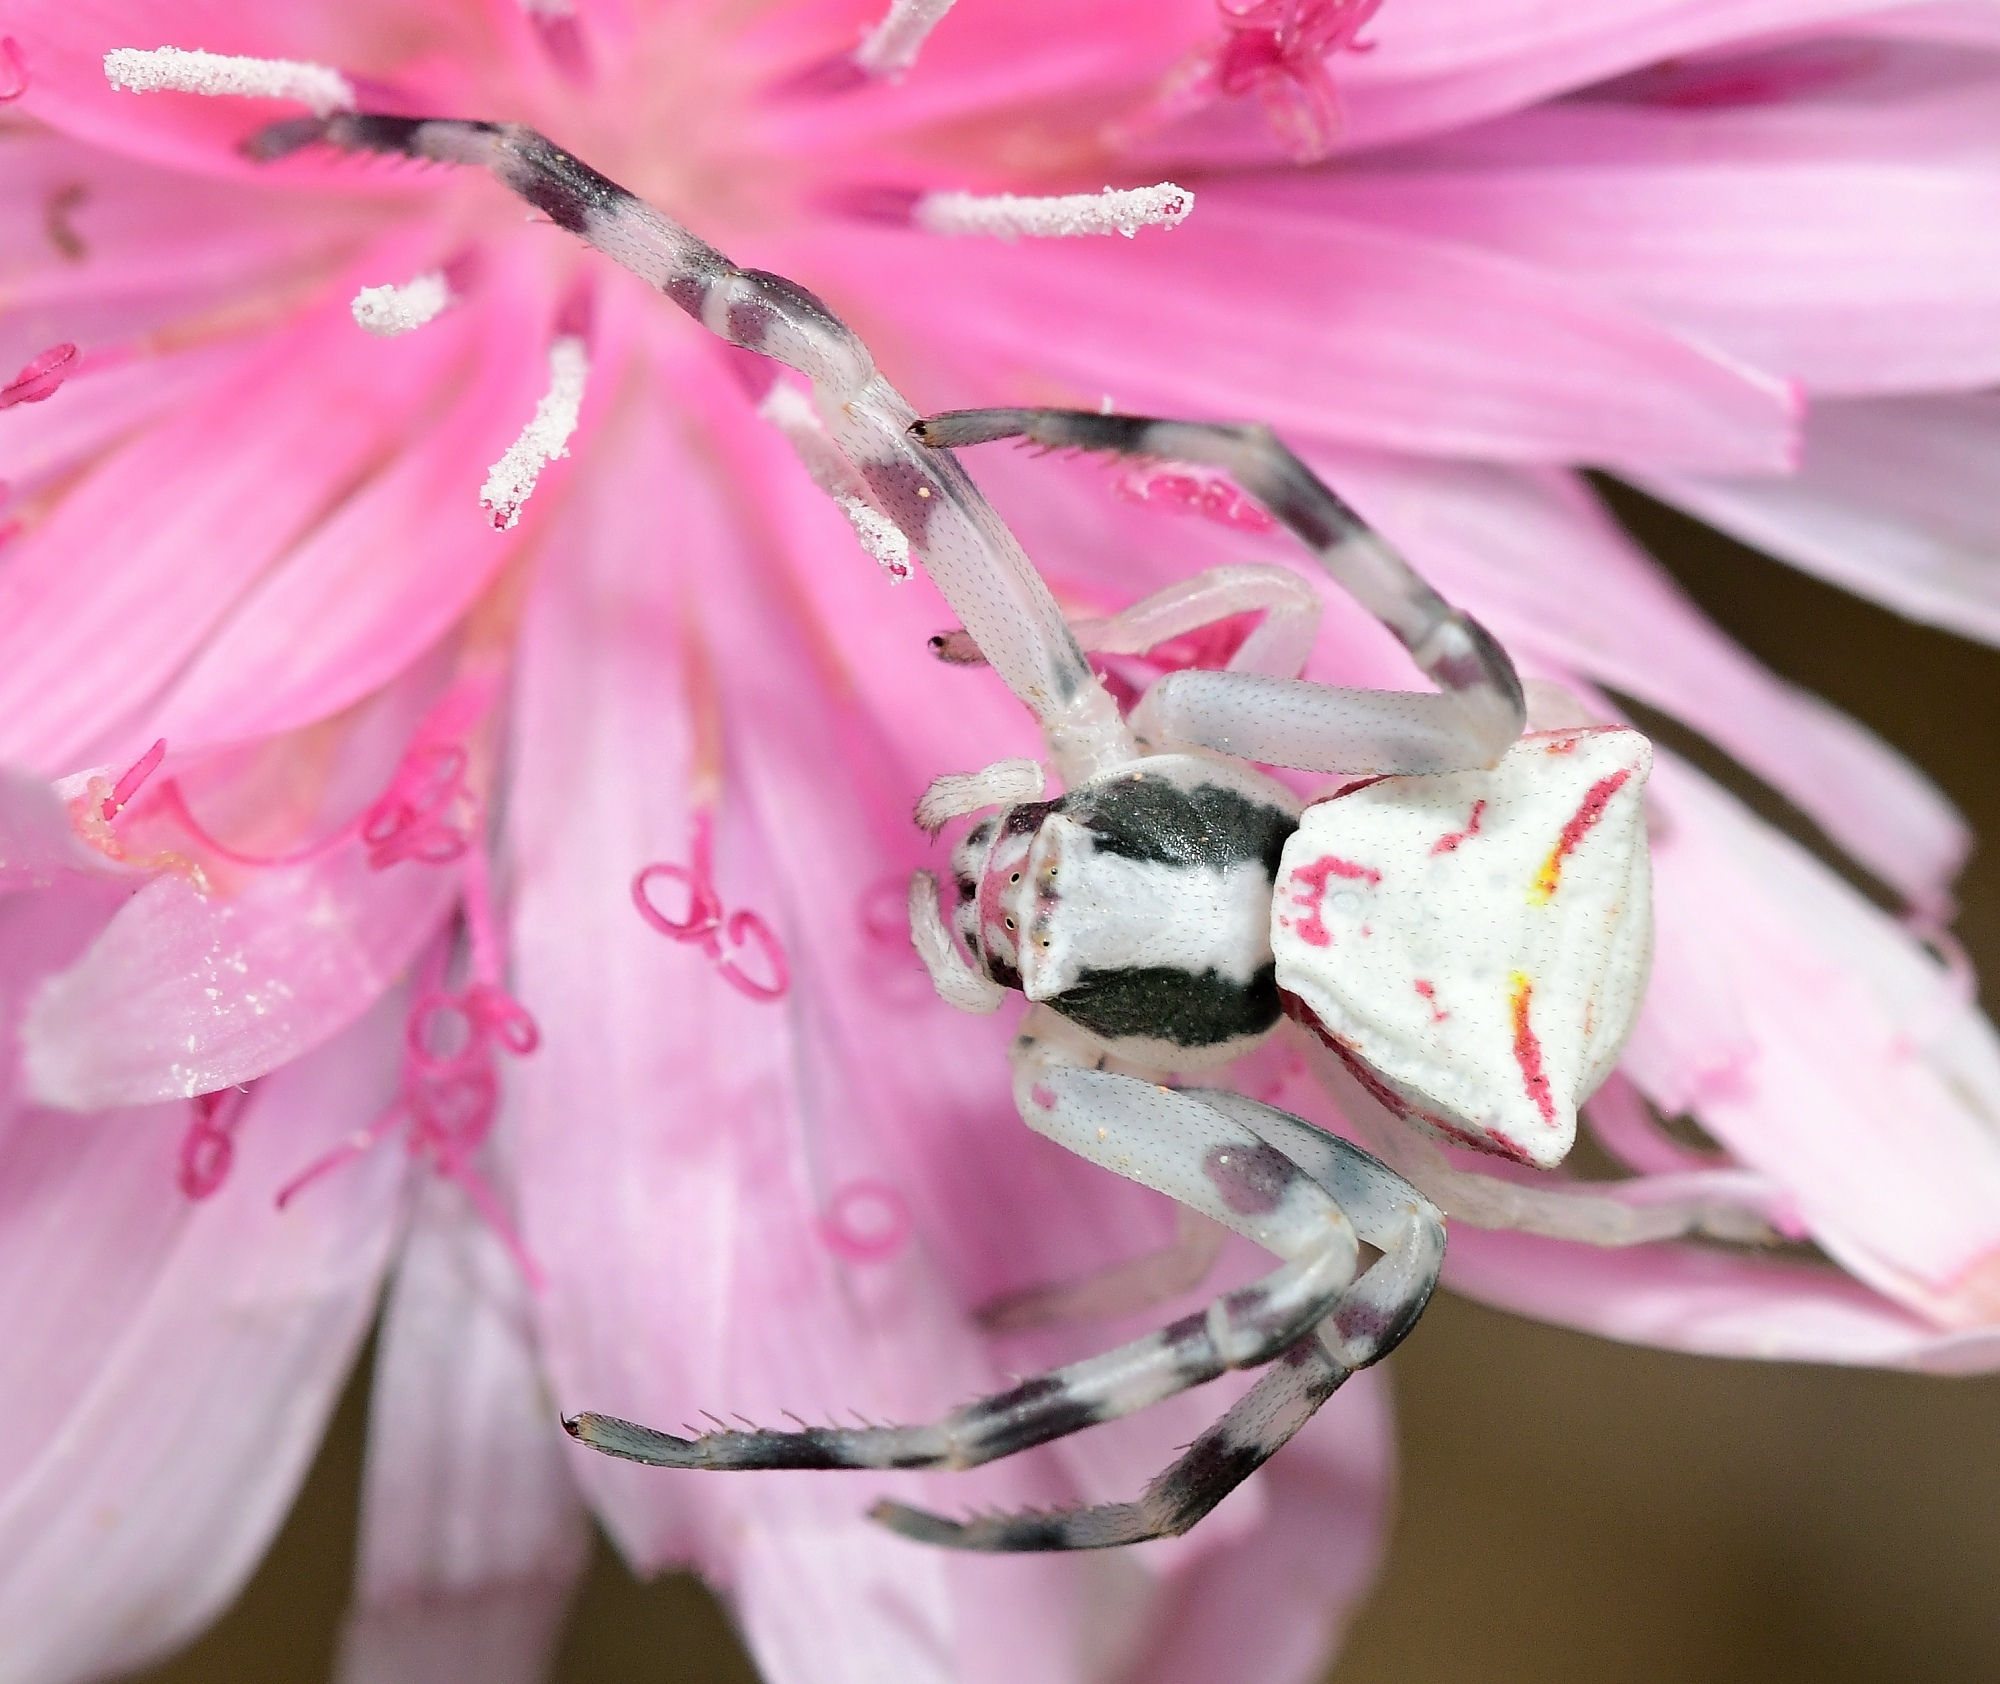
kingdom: Animalia
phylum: Arthropoda
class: Arachnida
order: Araneae
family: Thomisidae
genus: Thomisus
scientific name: Thomisus onustus
